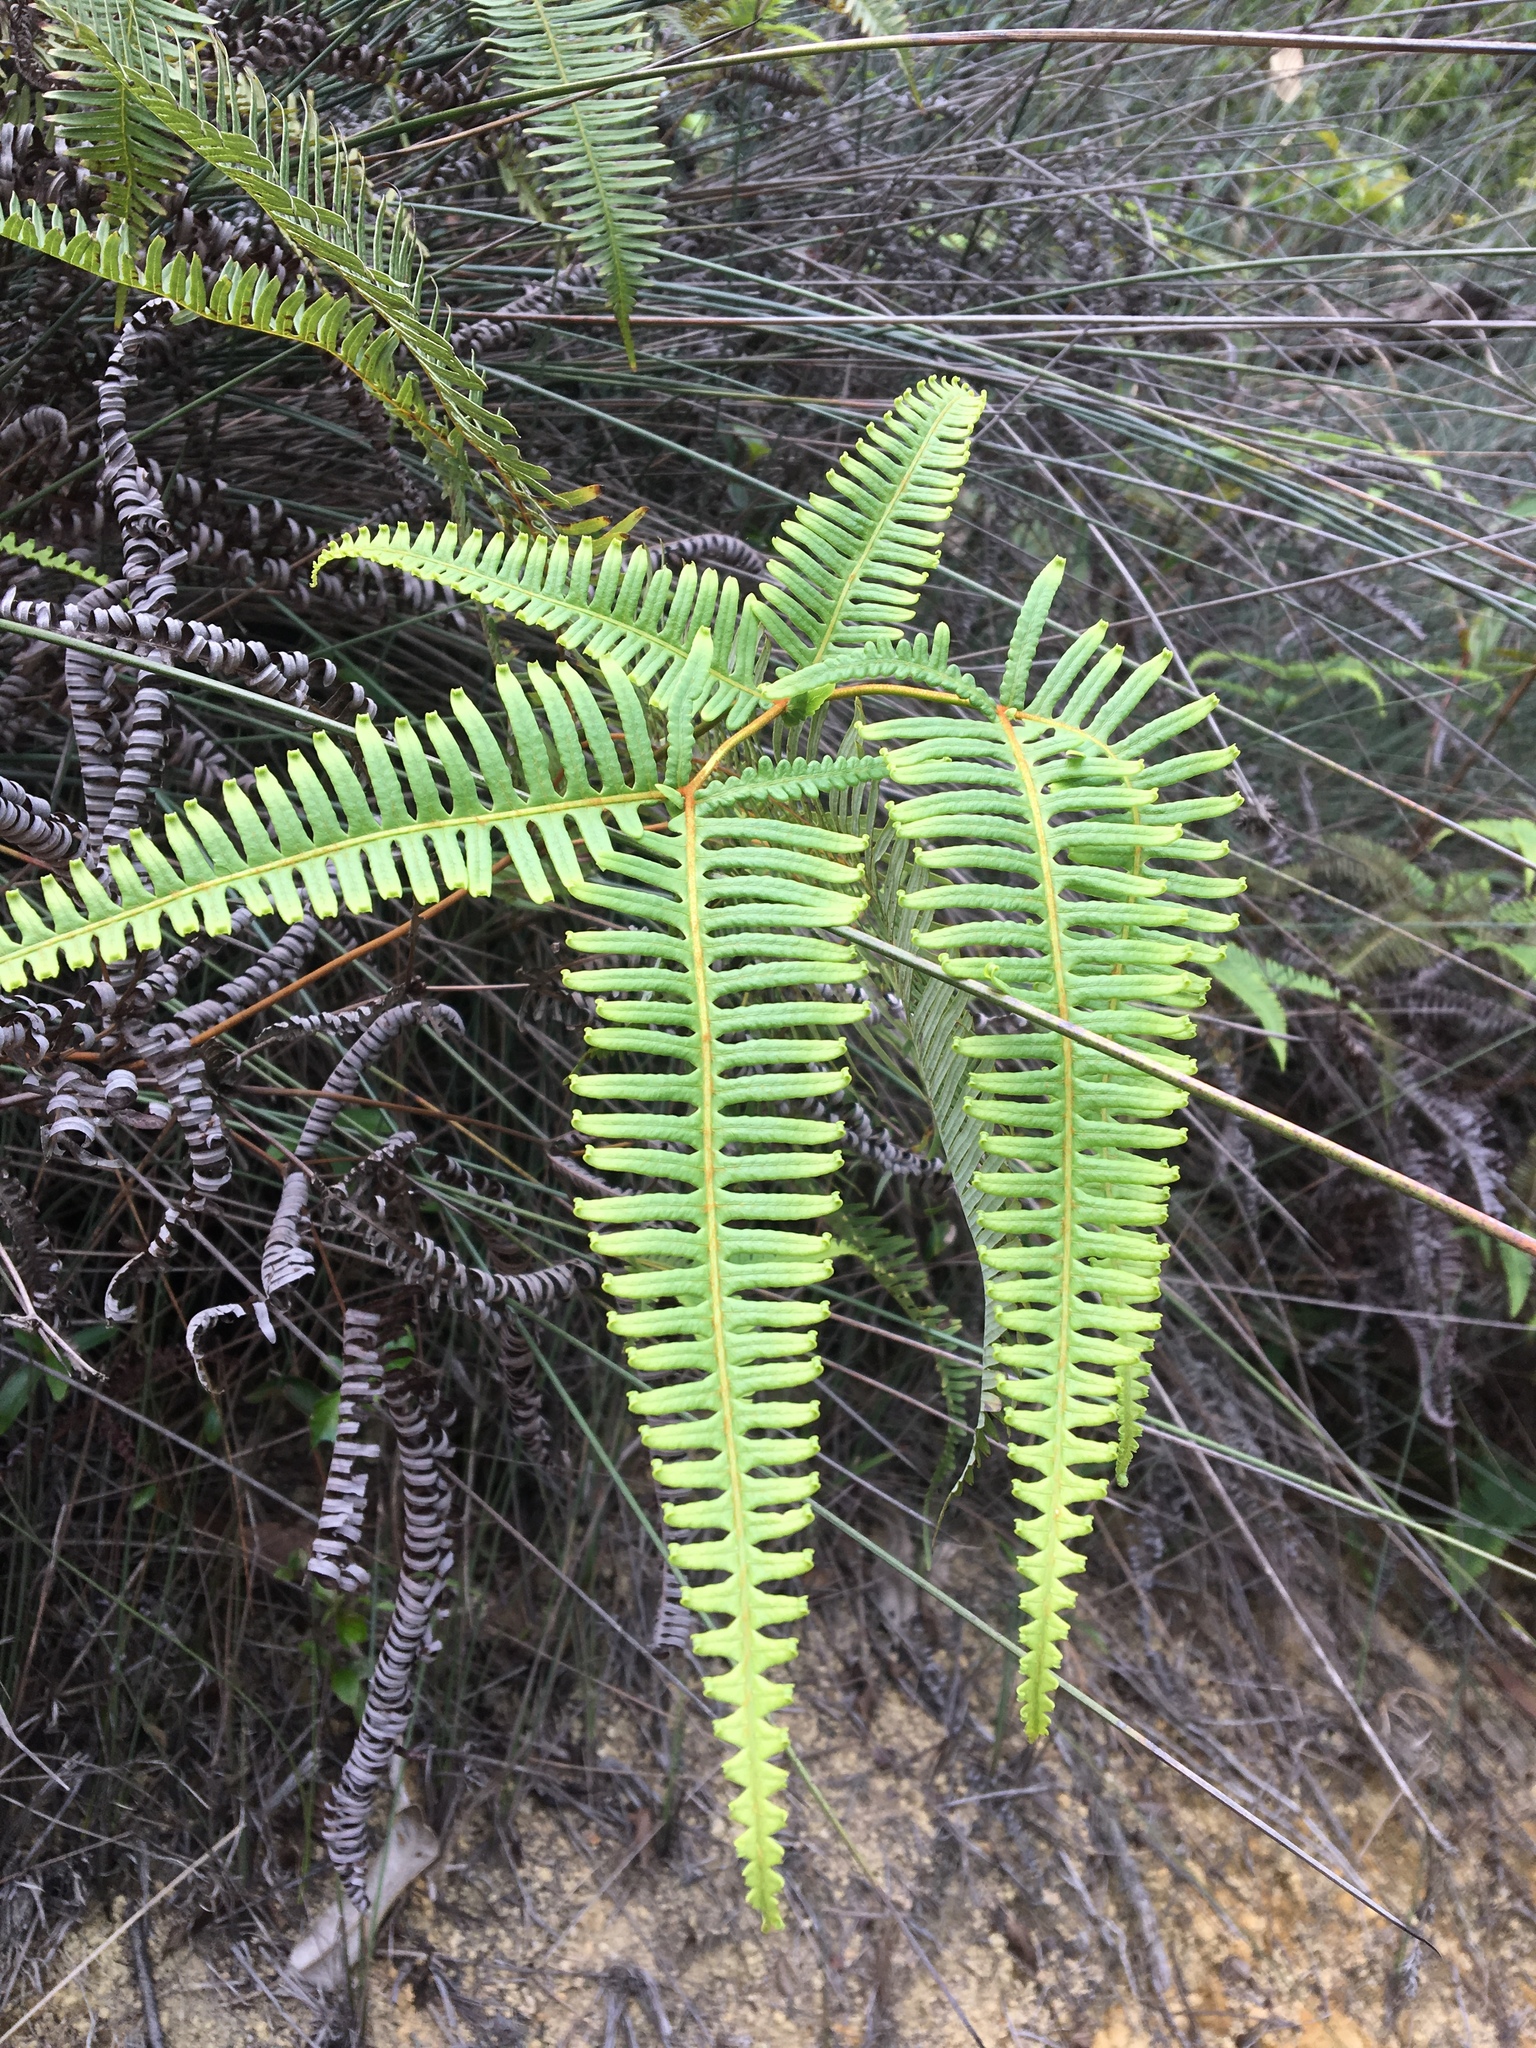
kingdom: Plantae
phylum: Tracheophyta
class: Polypodiopsida
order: Gleicheniales
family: Gleicheniaceae
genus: Dicranopteris
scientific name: Dicranopteris linearis
